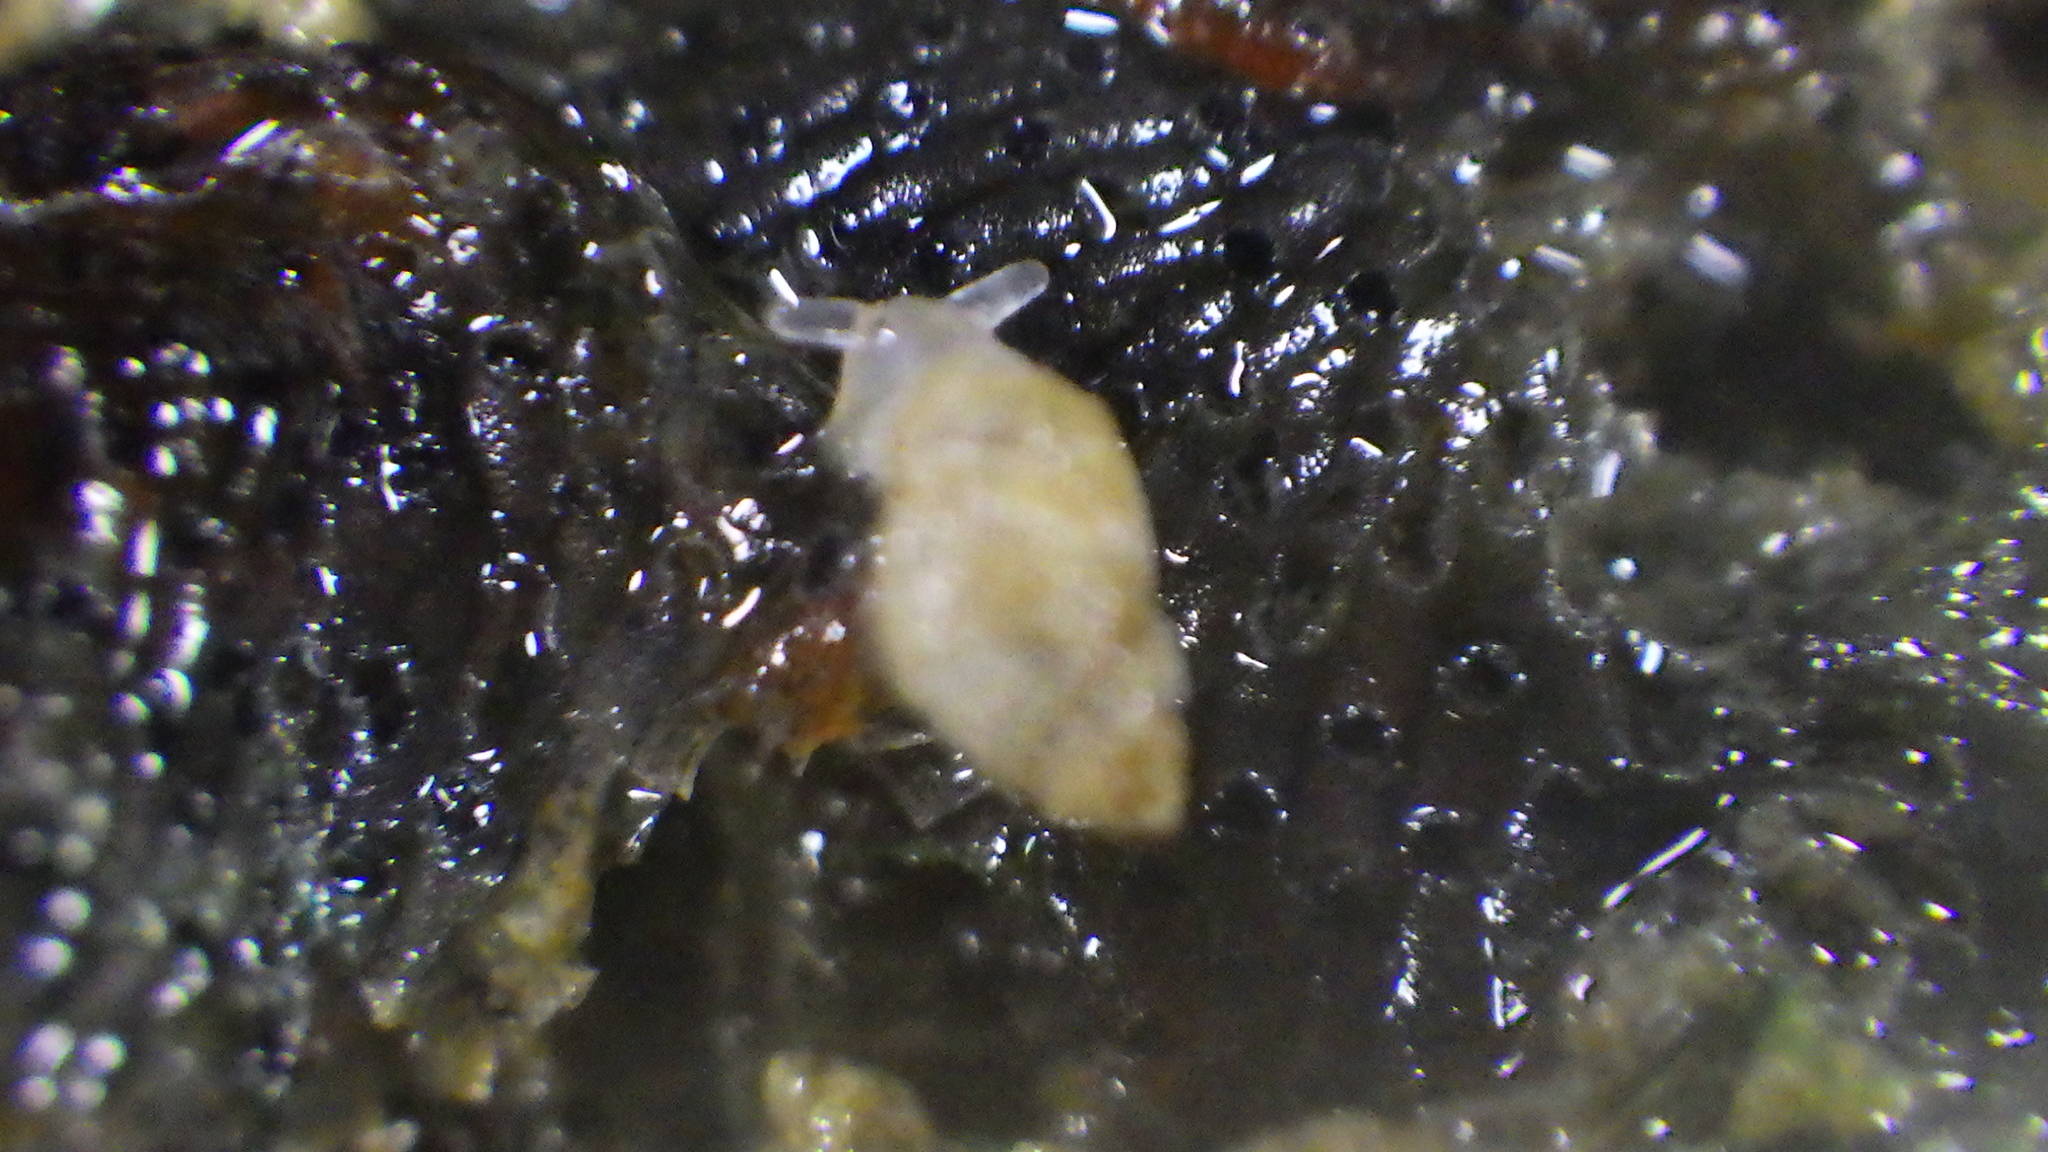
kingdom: Animalia
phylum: Mollusca
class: Gastropoda
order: Ellobiida
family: Ellobiidae
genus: Leuconopsis
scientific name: Leuconopsis obsoleta
